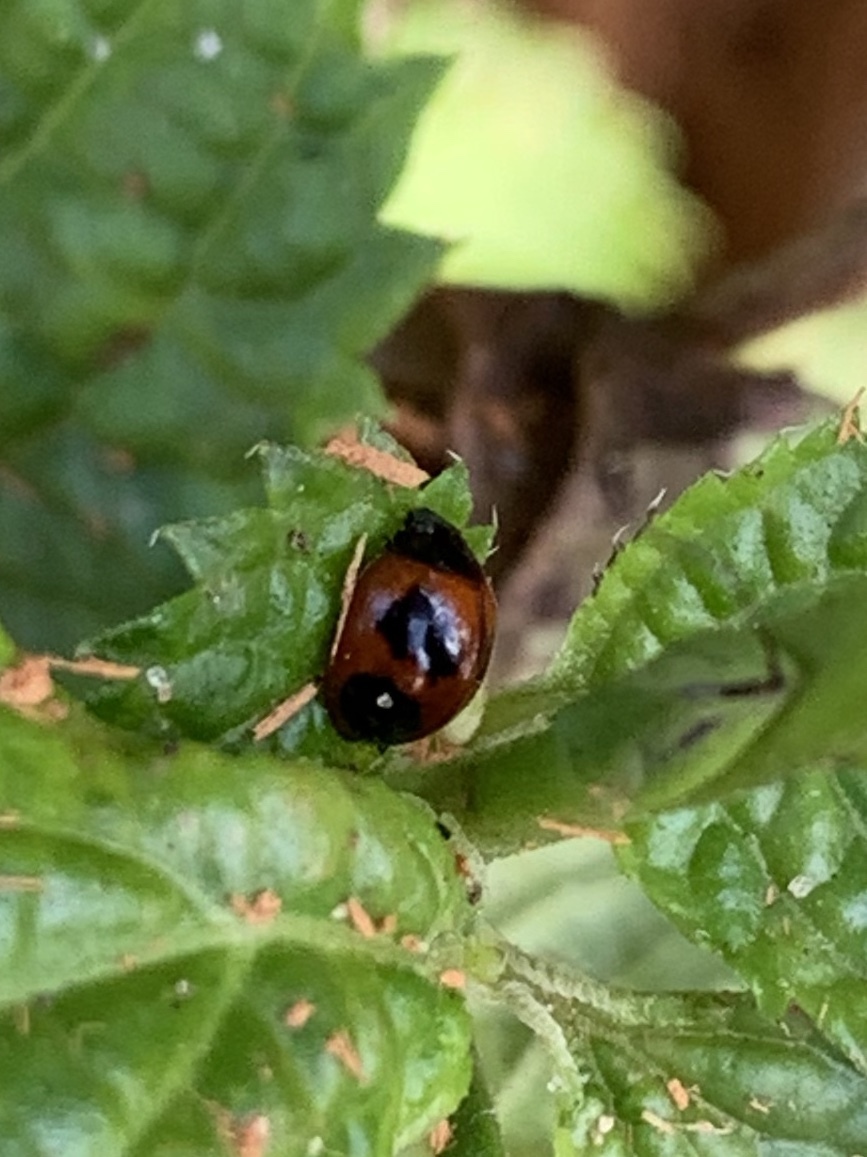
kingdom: Animalia
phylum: Arthropoda
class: Insecta
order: Coleoptera
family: Coccinellidae
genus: Exochomus
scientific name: Exochomus childreni
